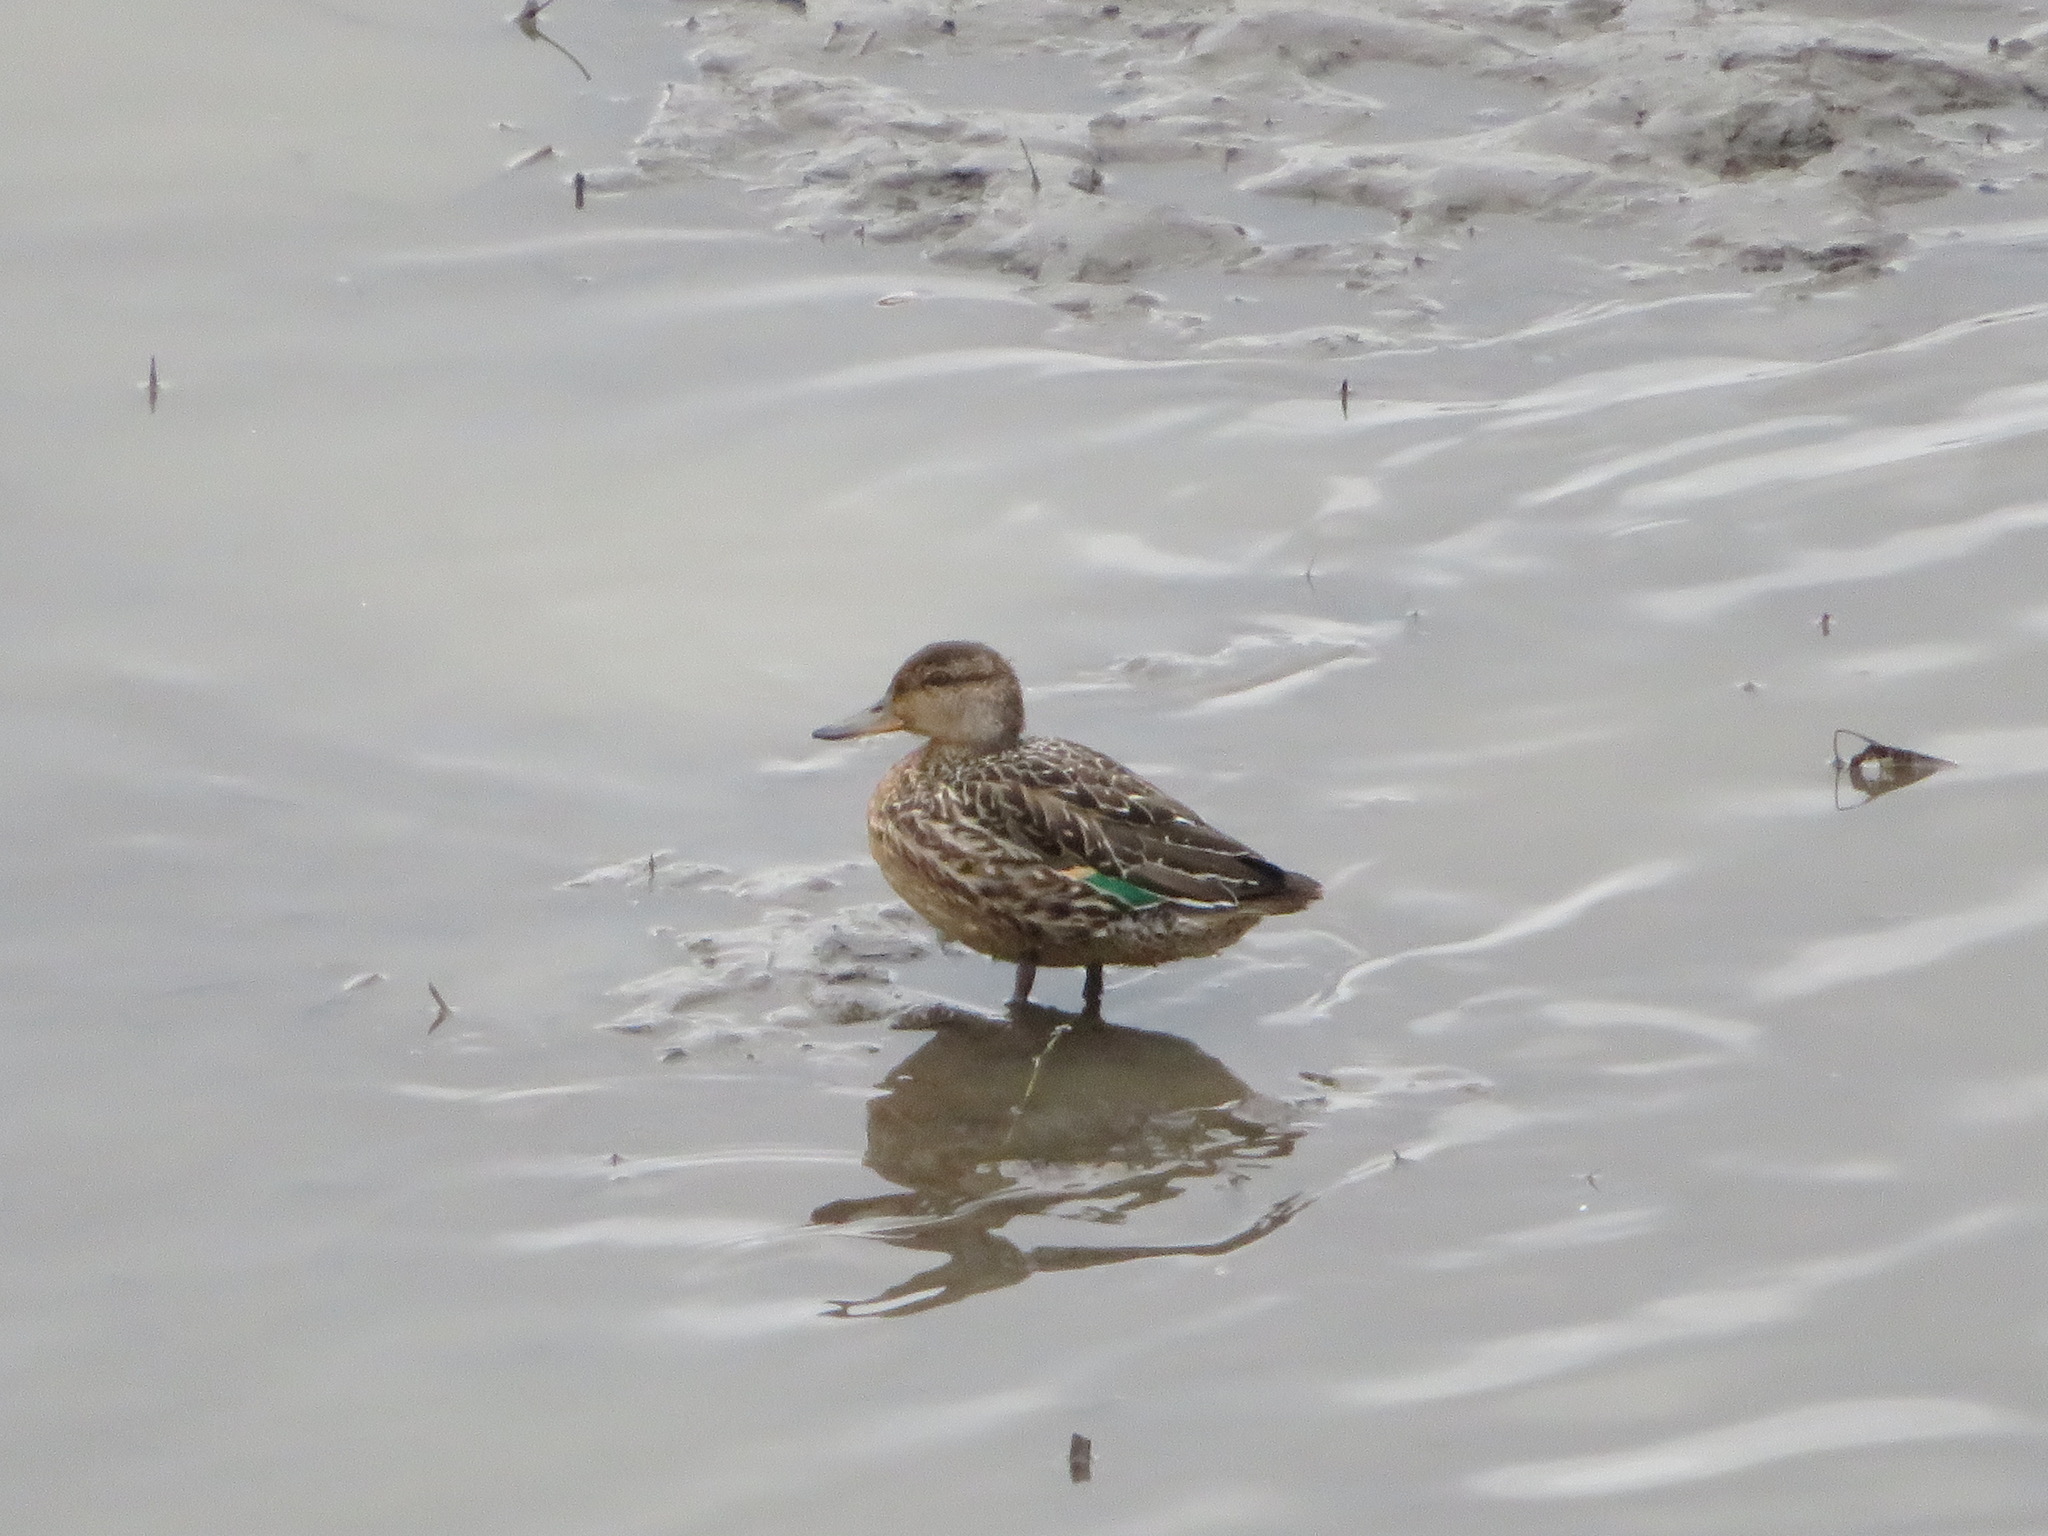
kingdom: Animalia
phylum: Chordata
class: Aves
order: Anseriformes
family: Anatidae
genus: Anas
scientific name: Anas crecca
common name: Eurasian teal
